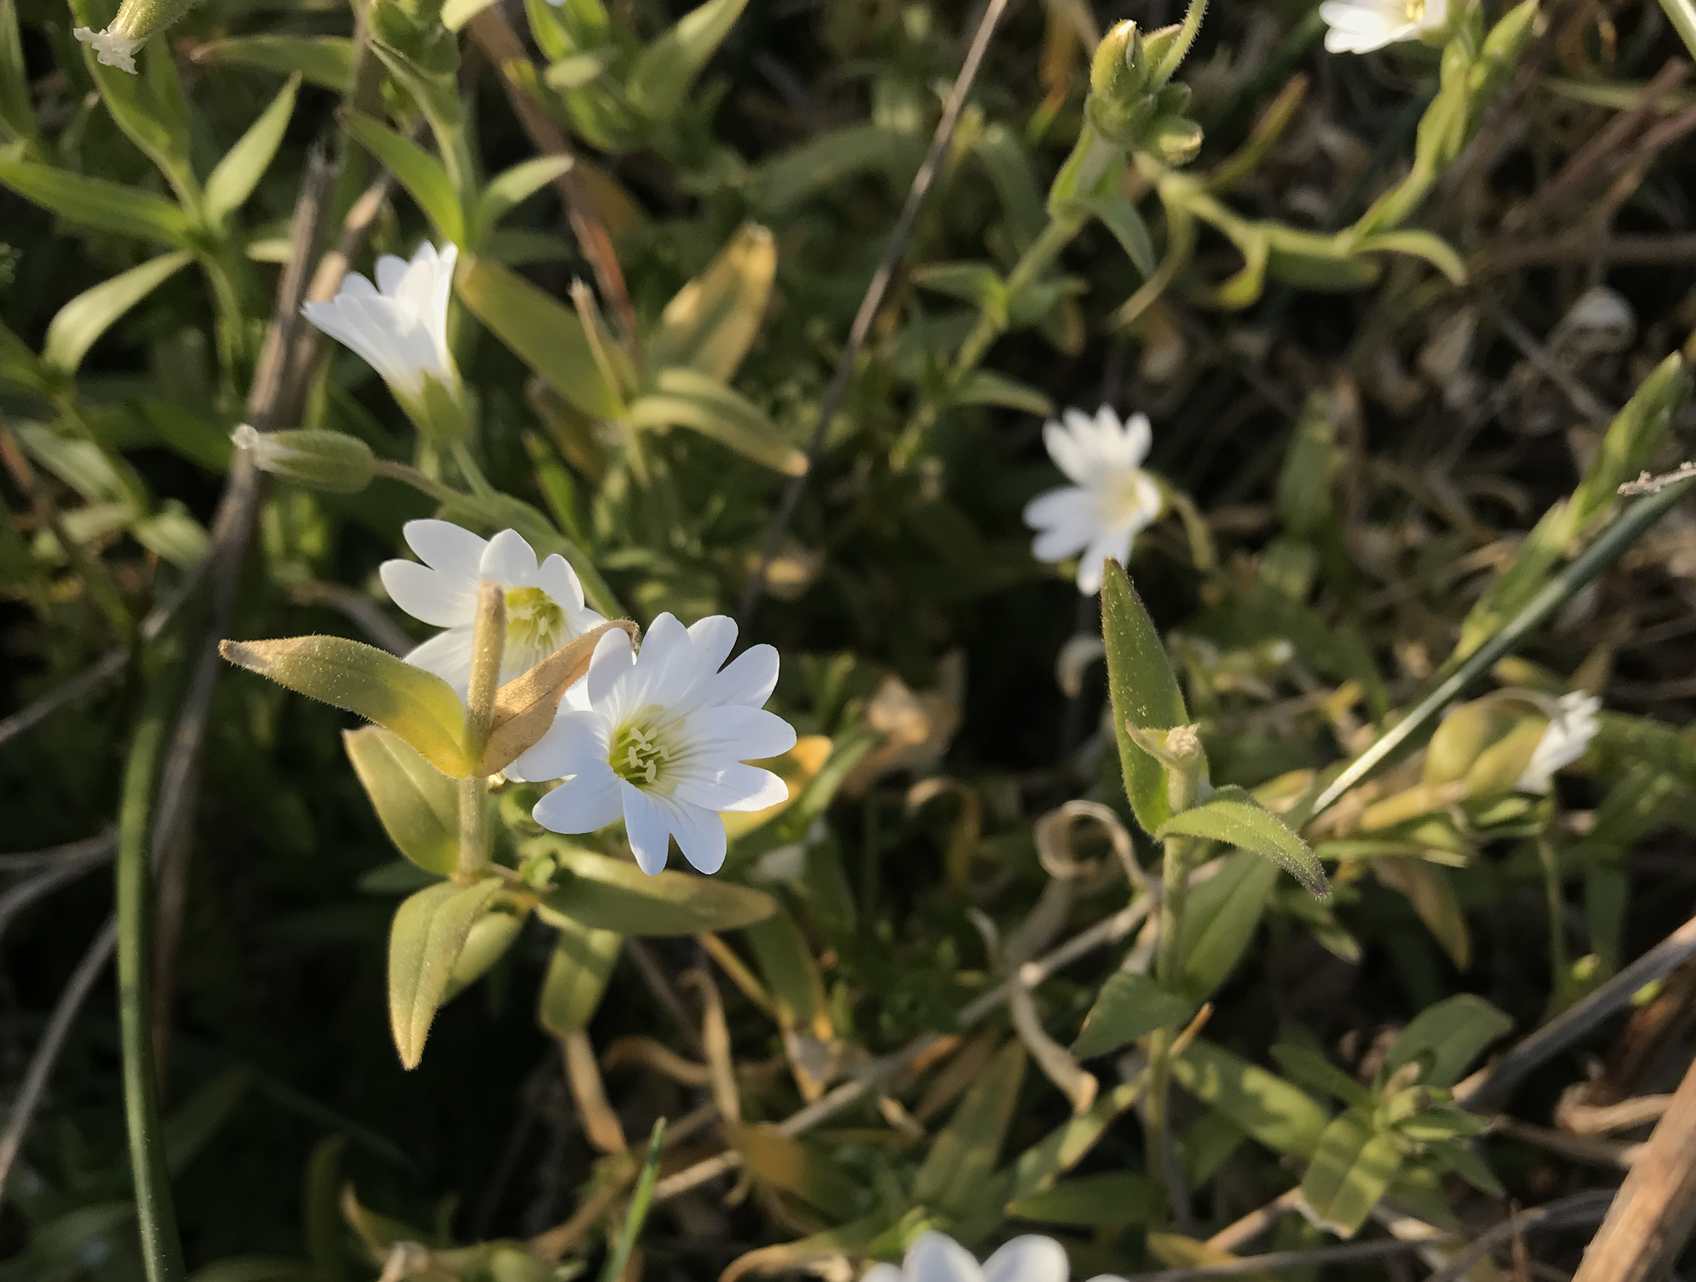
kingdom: Plantae
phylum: Tracheophyta
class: Magnoliopsida
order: Caryophyllales
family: Caryophyllaceae
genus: Cerastium
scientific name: Cerastium arvense
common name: Field mouse-ear
